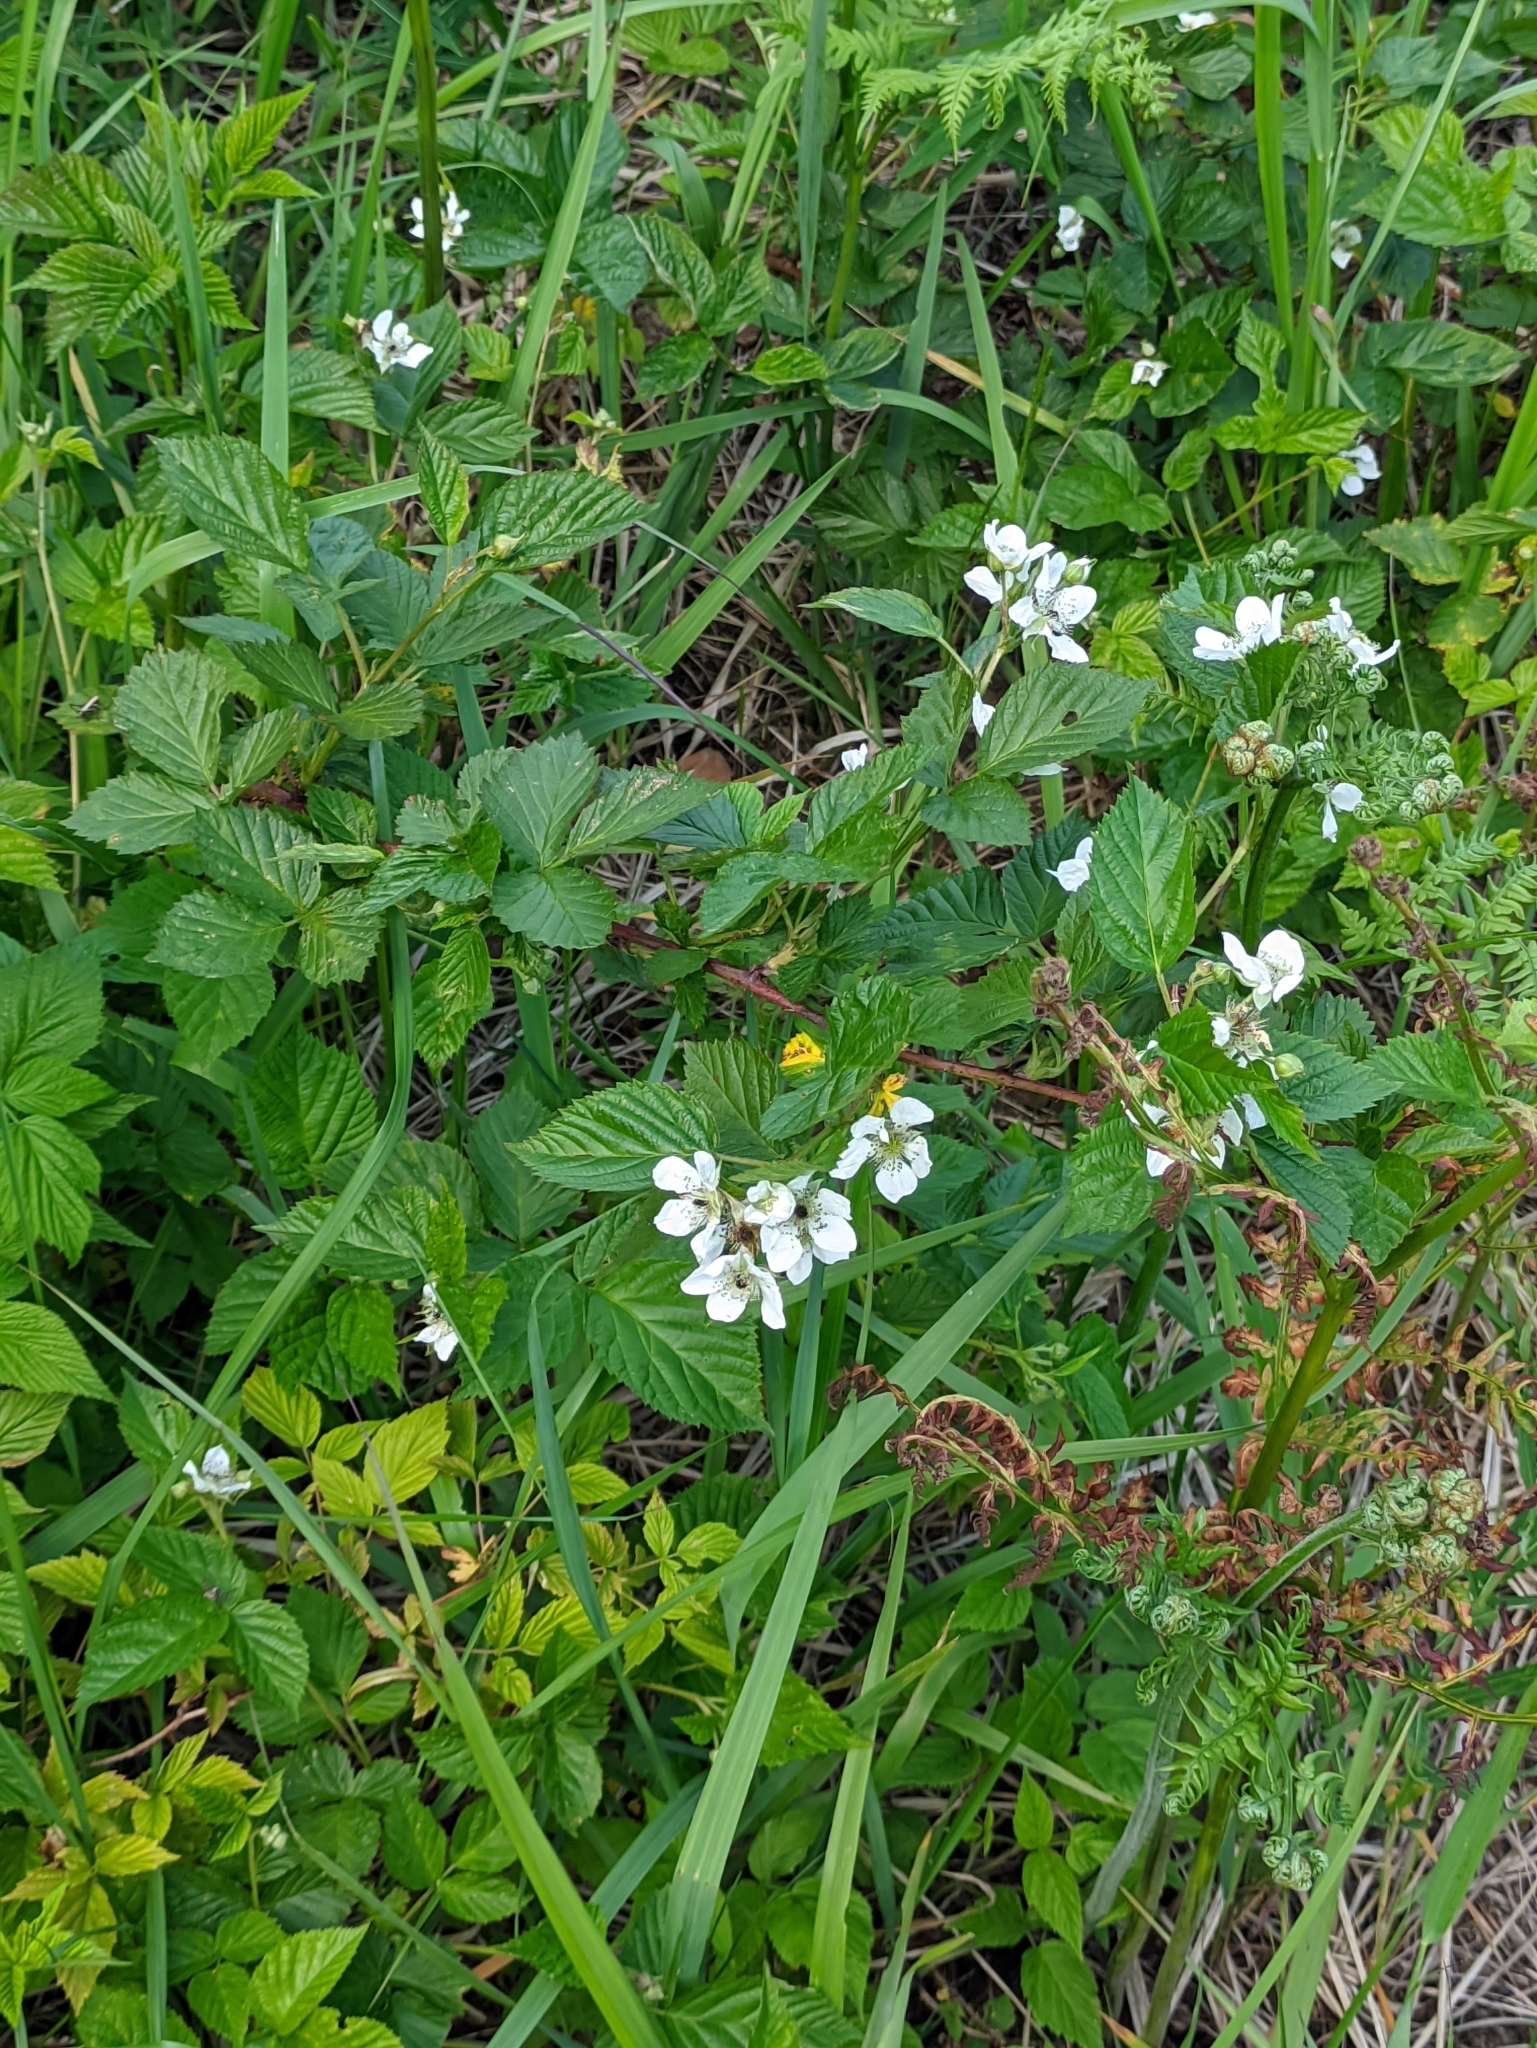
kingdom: Plantae
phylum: Tracheophyta
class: Magnoliopsida
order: Rosales
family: Rosaceae
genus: Rubus
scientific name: Rubus polonicus
